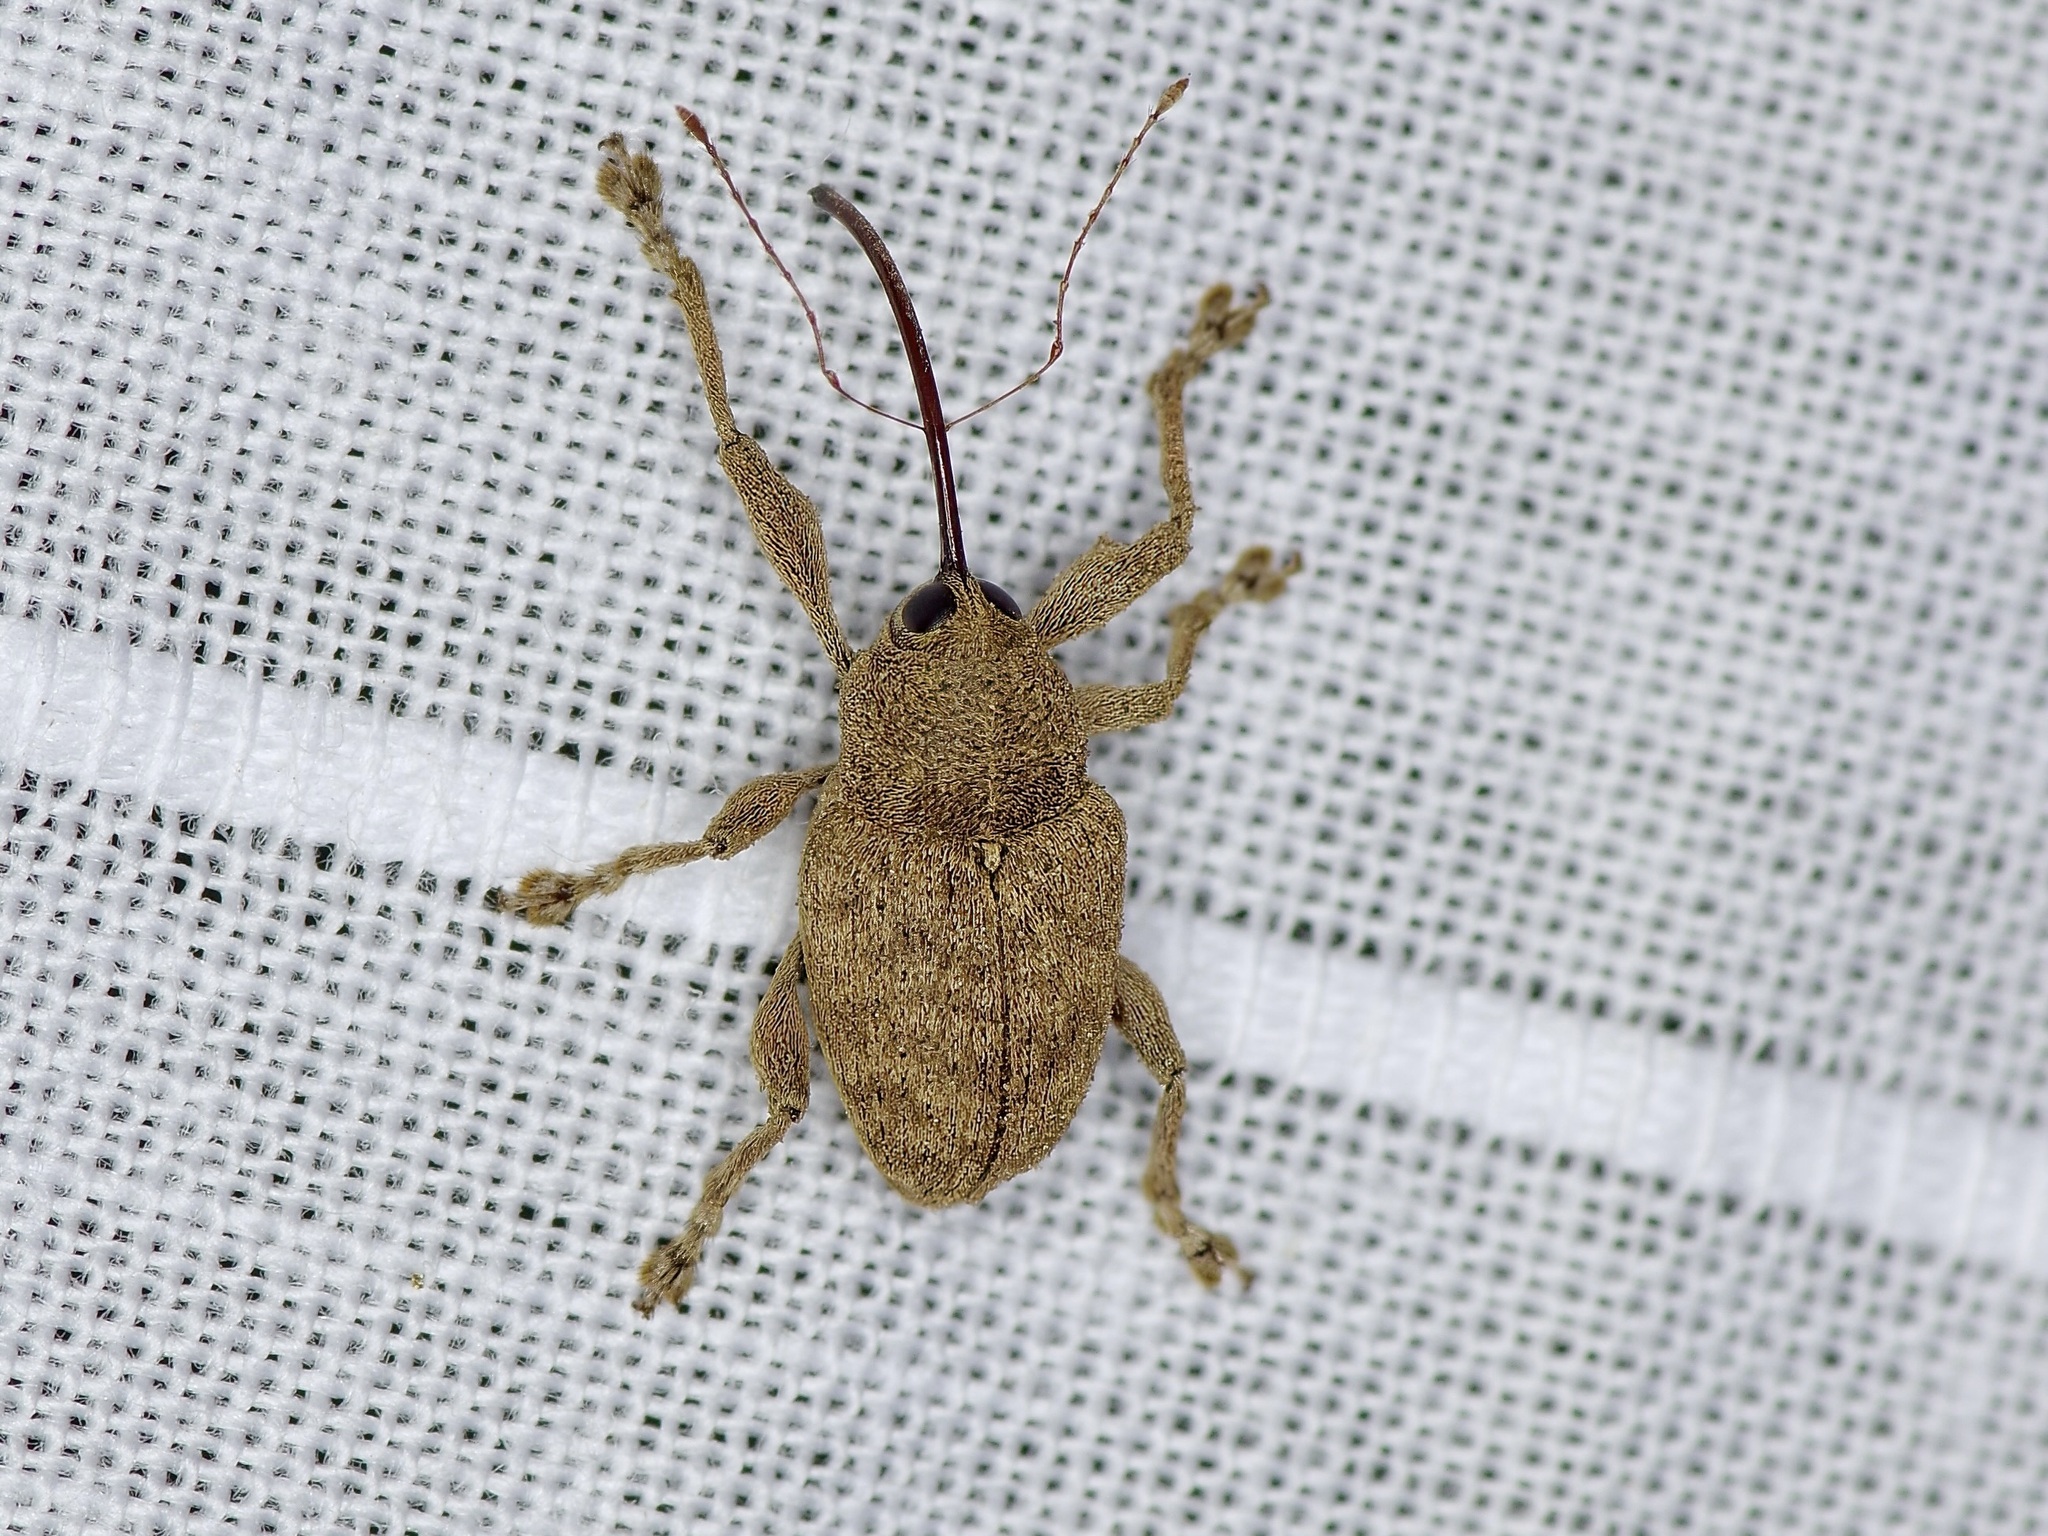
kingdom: Animalia
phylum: Arthropoda
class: Insecta
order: Coleoptera
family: Curculionidae
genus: Curculio
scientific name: Curculio
